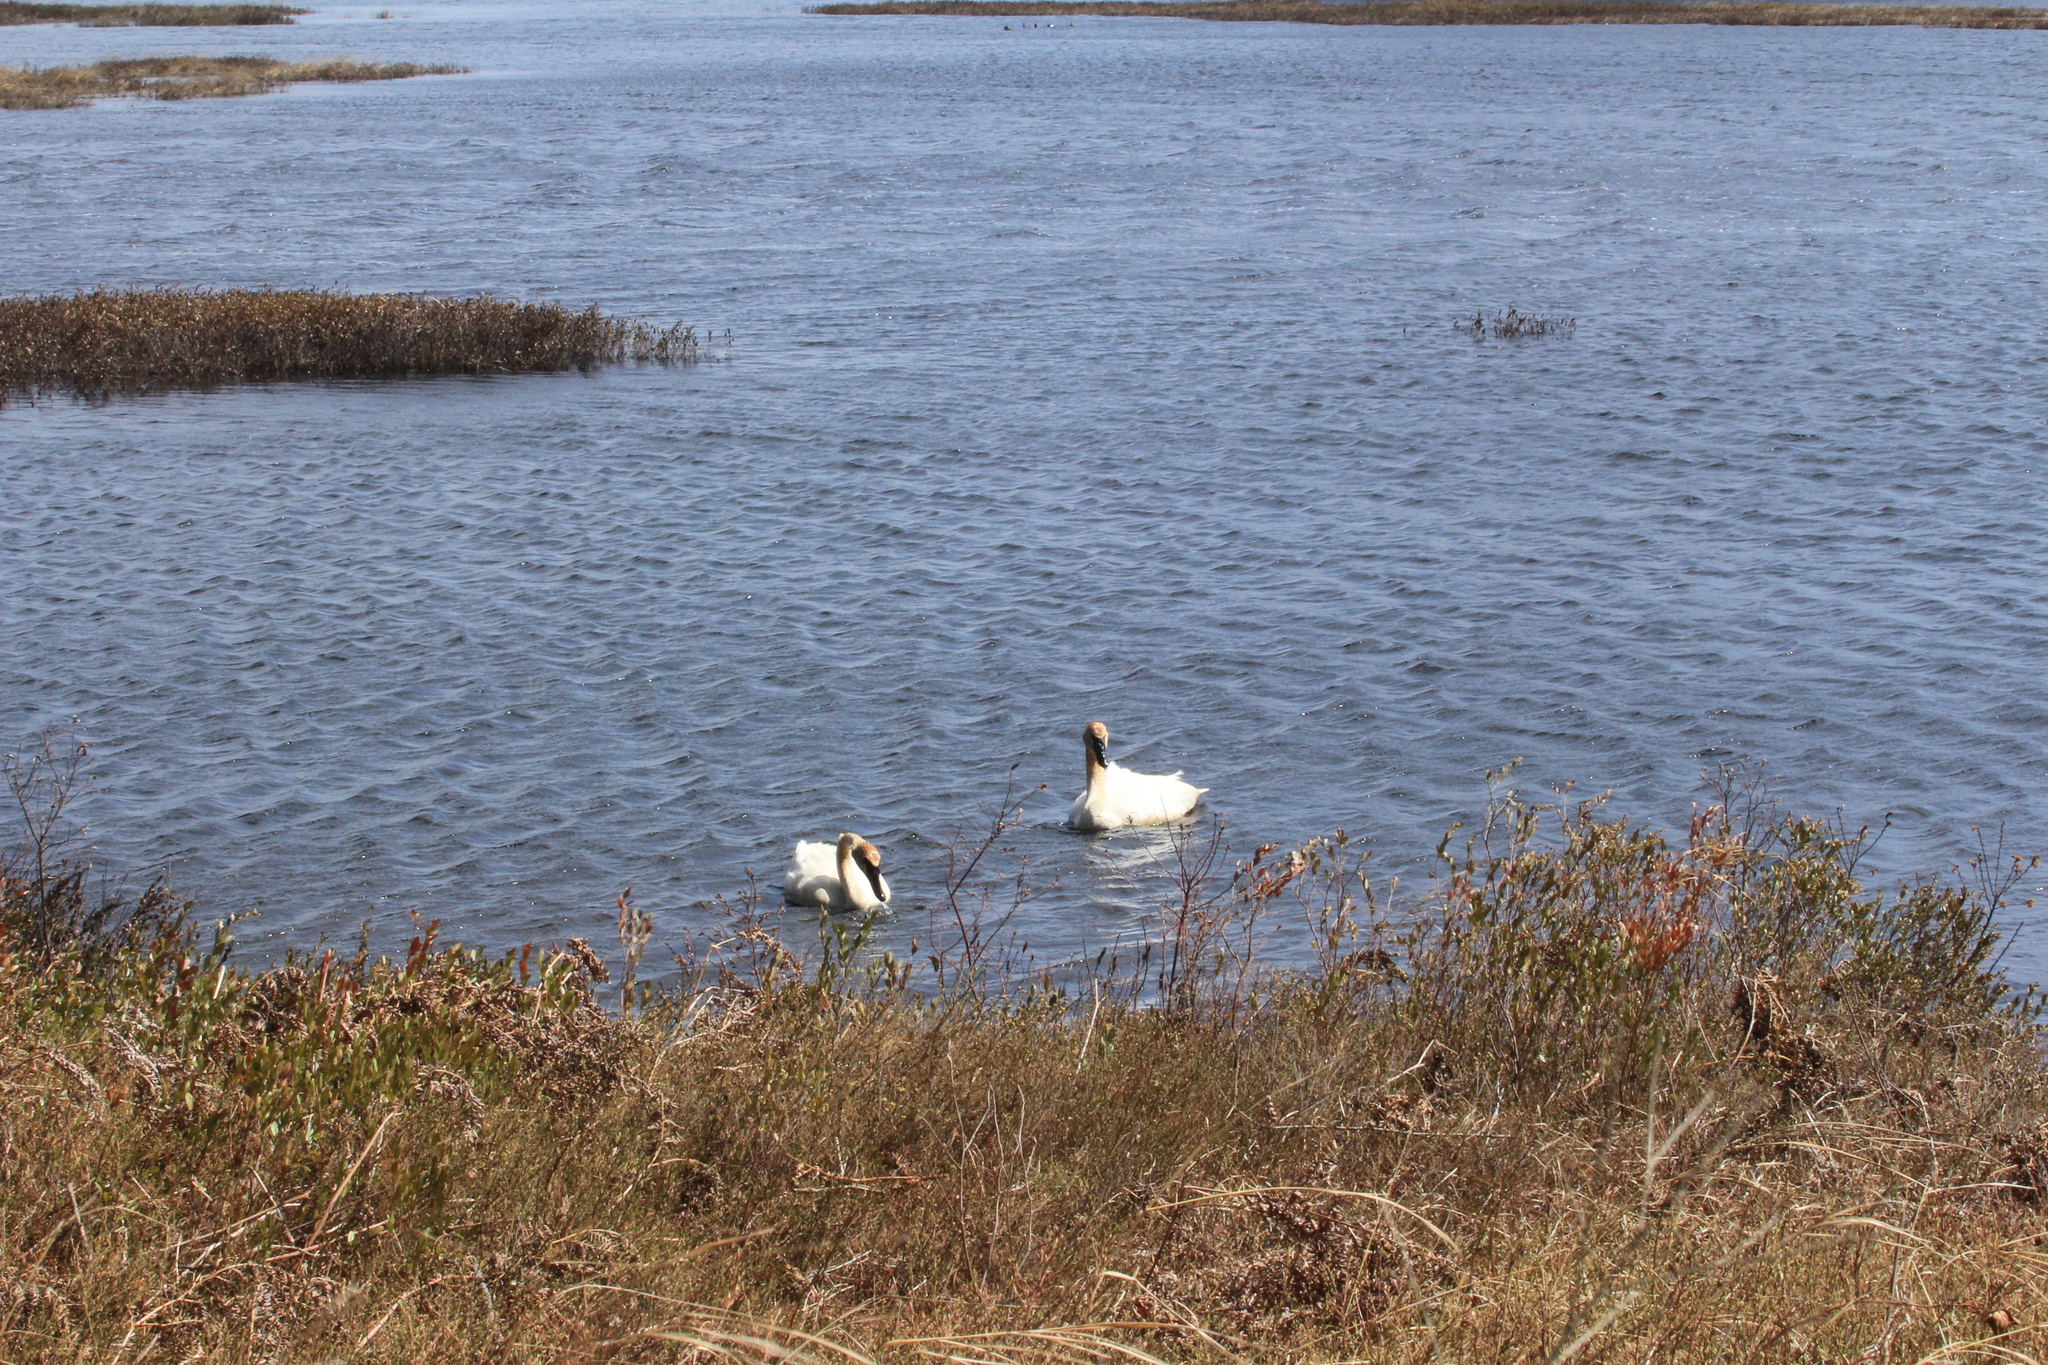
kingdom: Animalia
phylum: Chordata
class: Aves
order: Anseriformes
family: Anatidae
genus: Cygnus
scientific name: Cygnus buccinator
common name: Trumpeter swan
